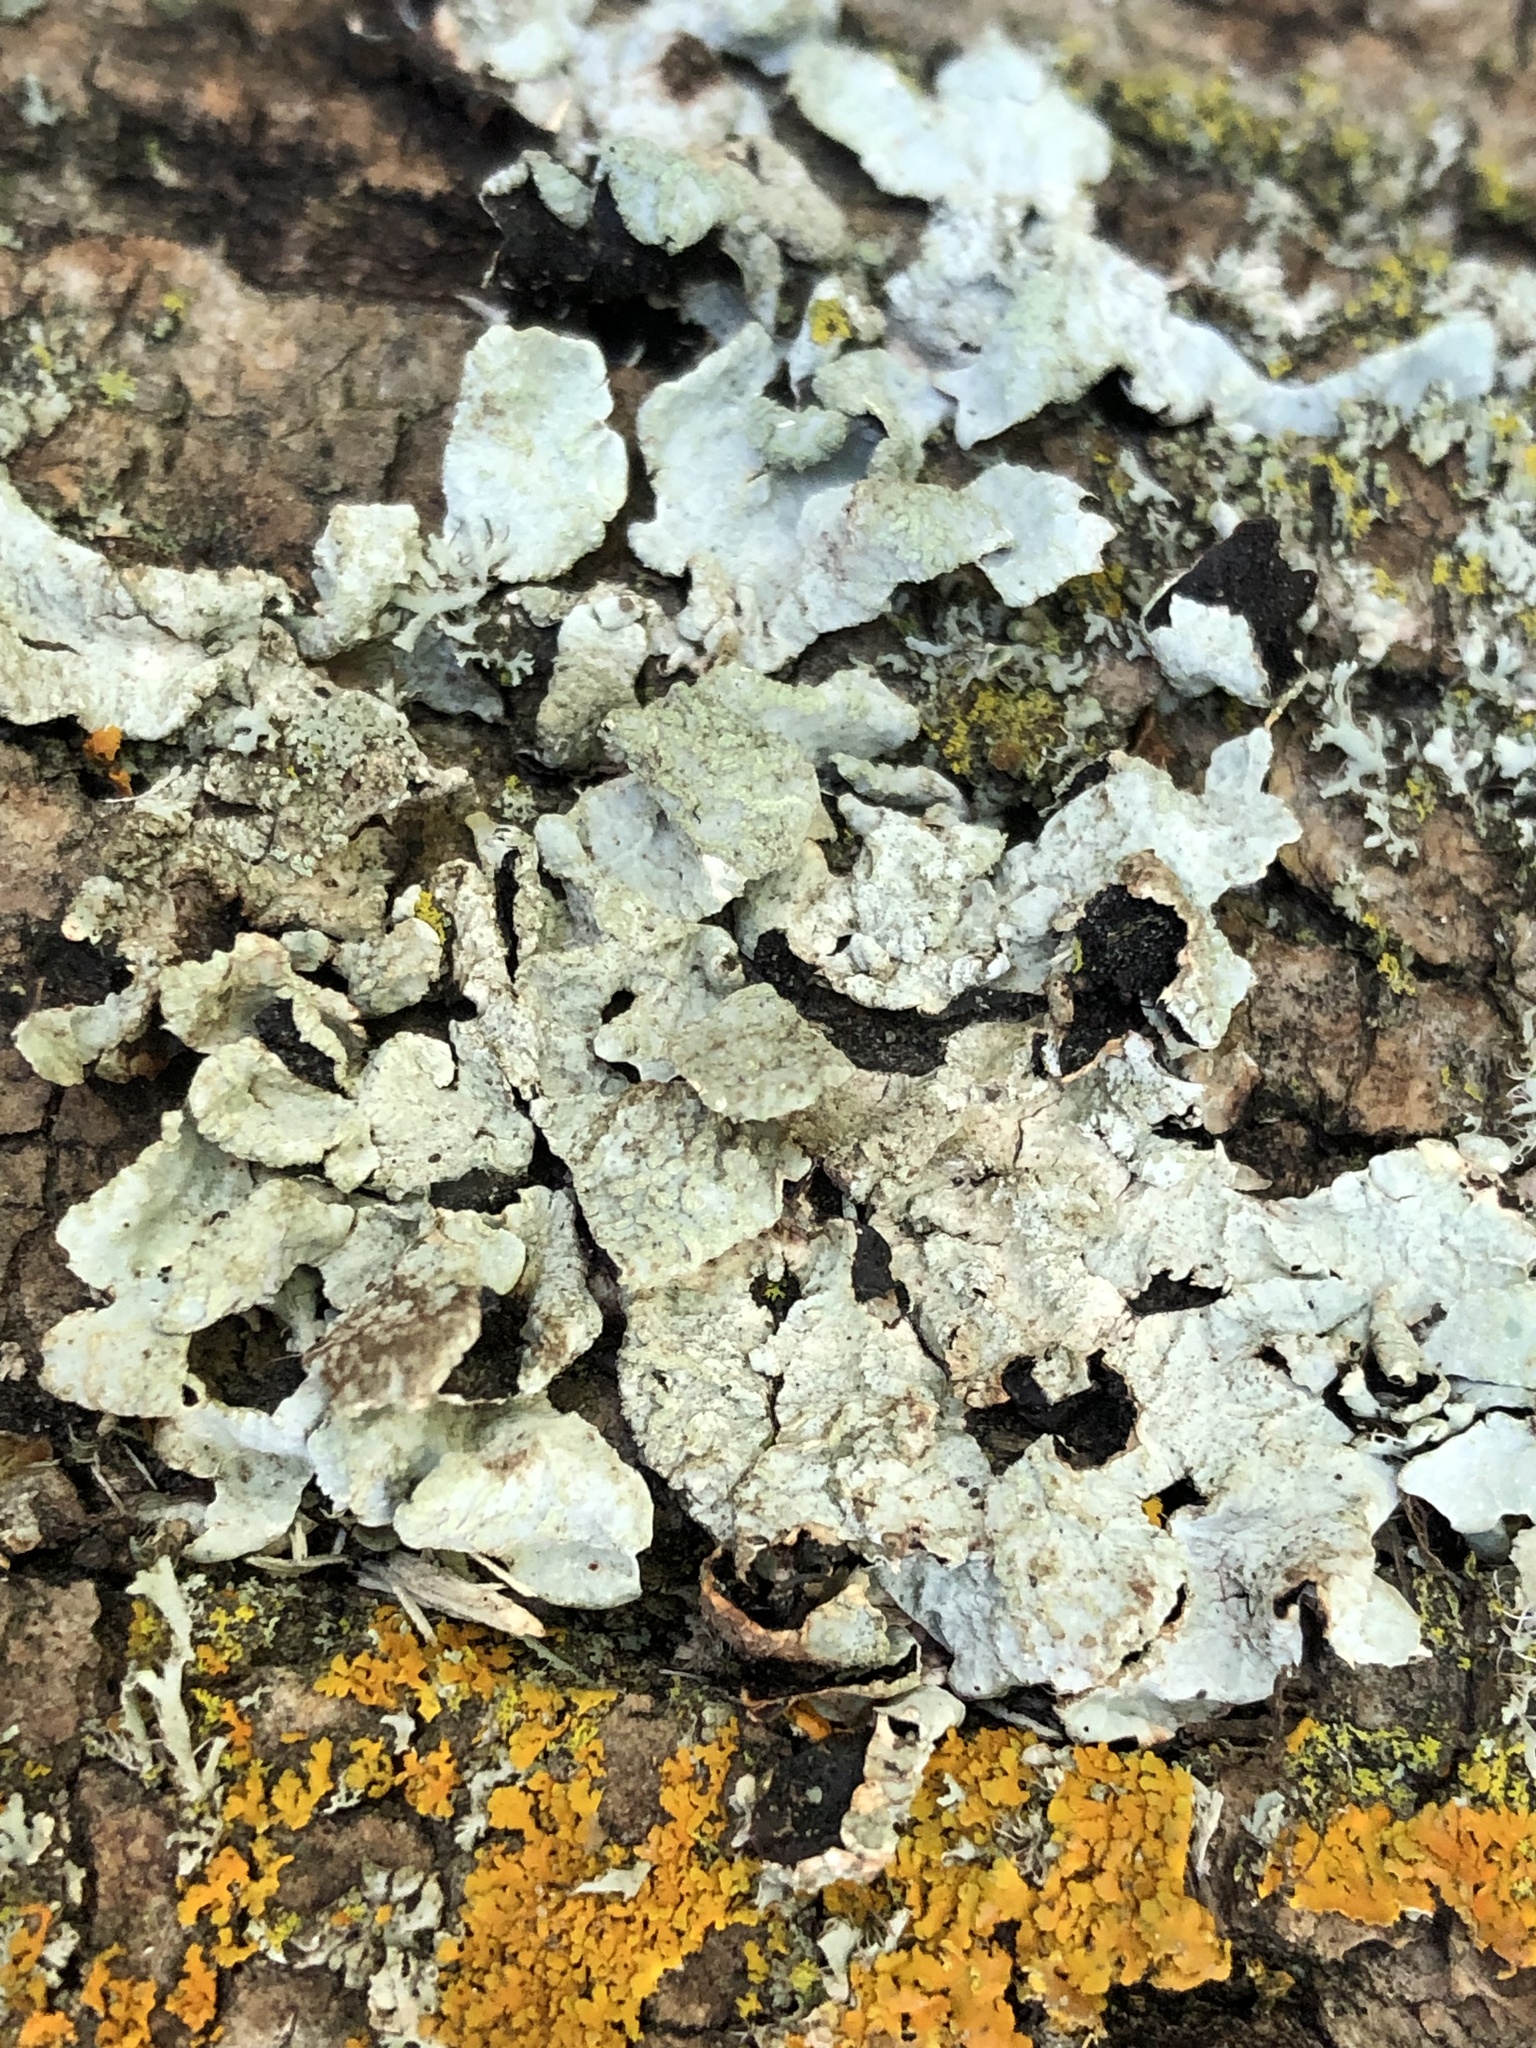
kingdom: Fungi
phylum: Ascomycota
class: Lecanoromycetes
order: Lecanorales
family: Parmeliaceae
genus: Parmelia
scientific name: Parmelia sulcata
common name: Netted shield lichen
